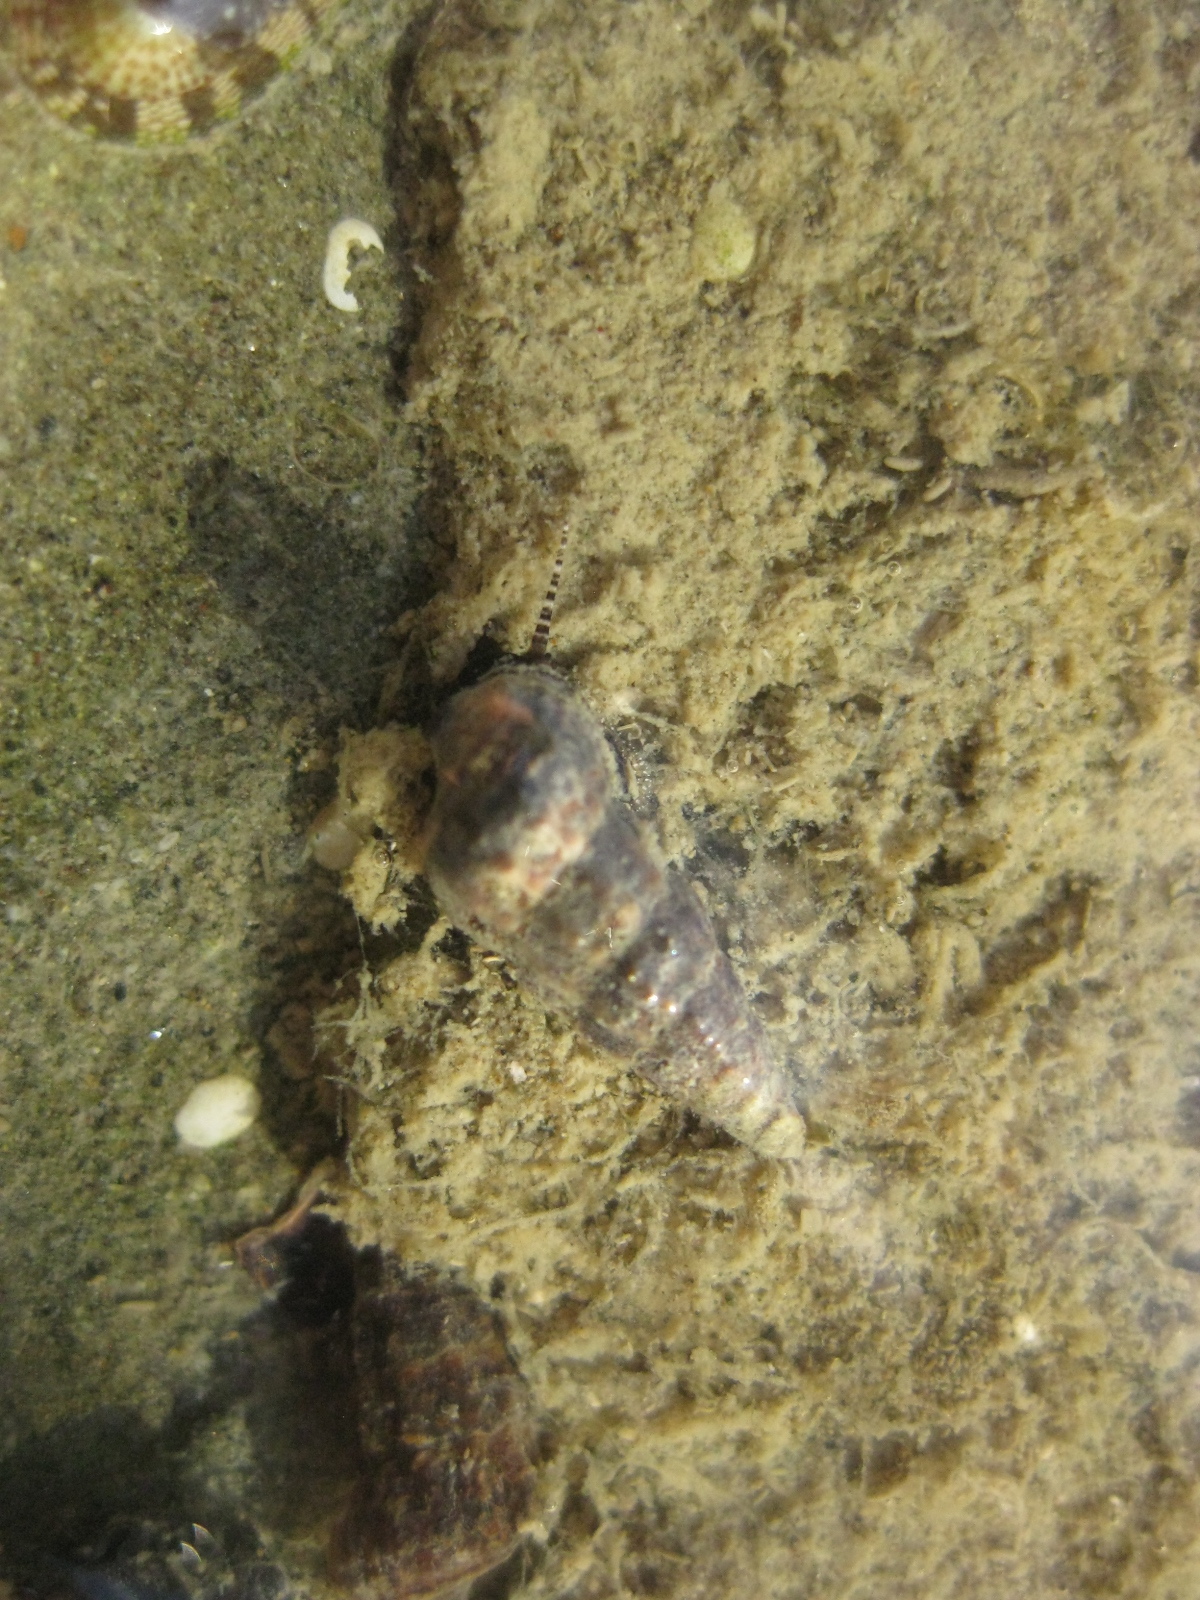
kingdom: Animalia
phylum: Mollusca
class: Gastropoda
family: Batillariidae
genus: Zeacumantus
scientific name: Zeacumantus lutulentus
